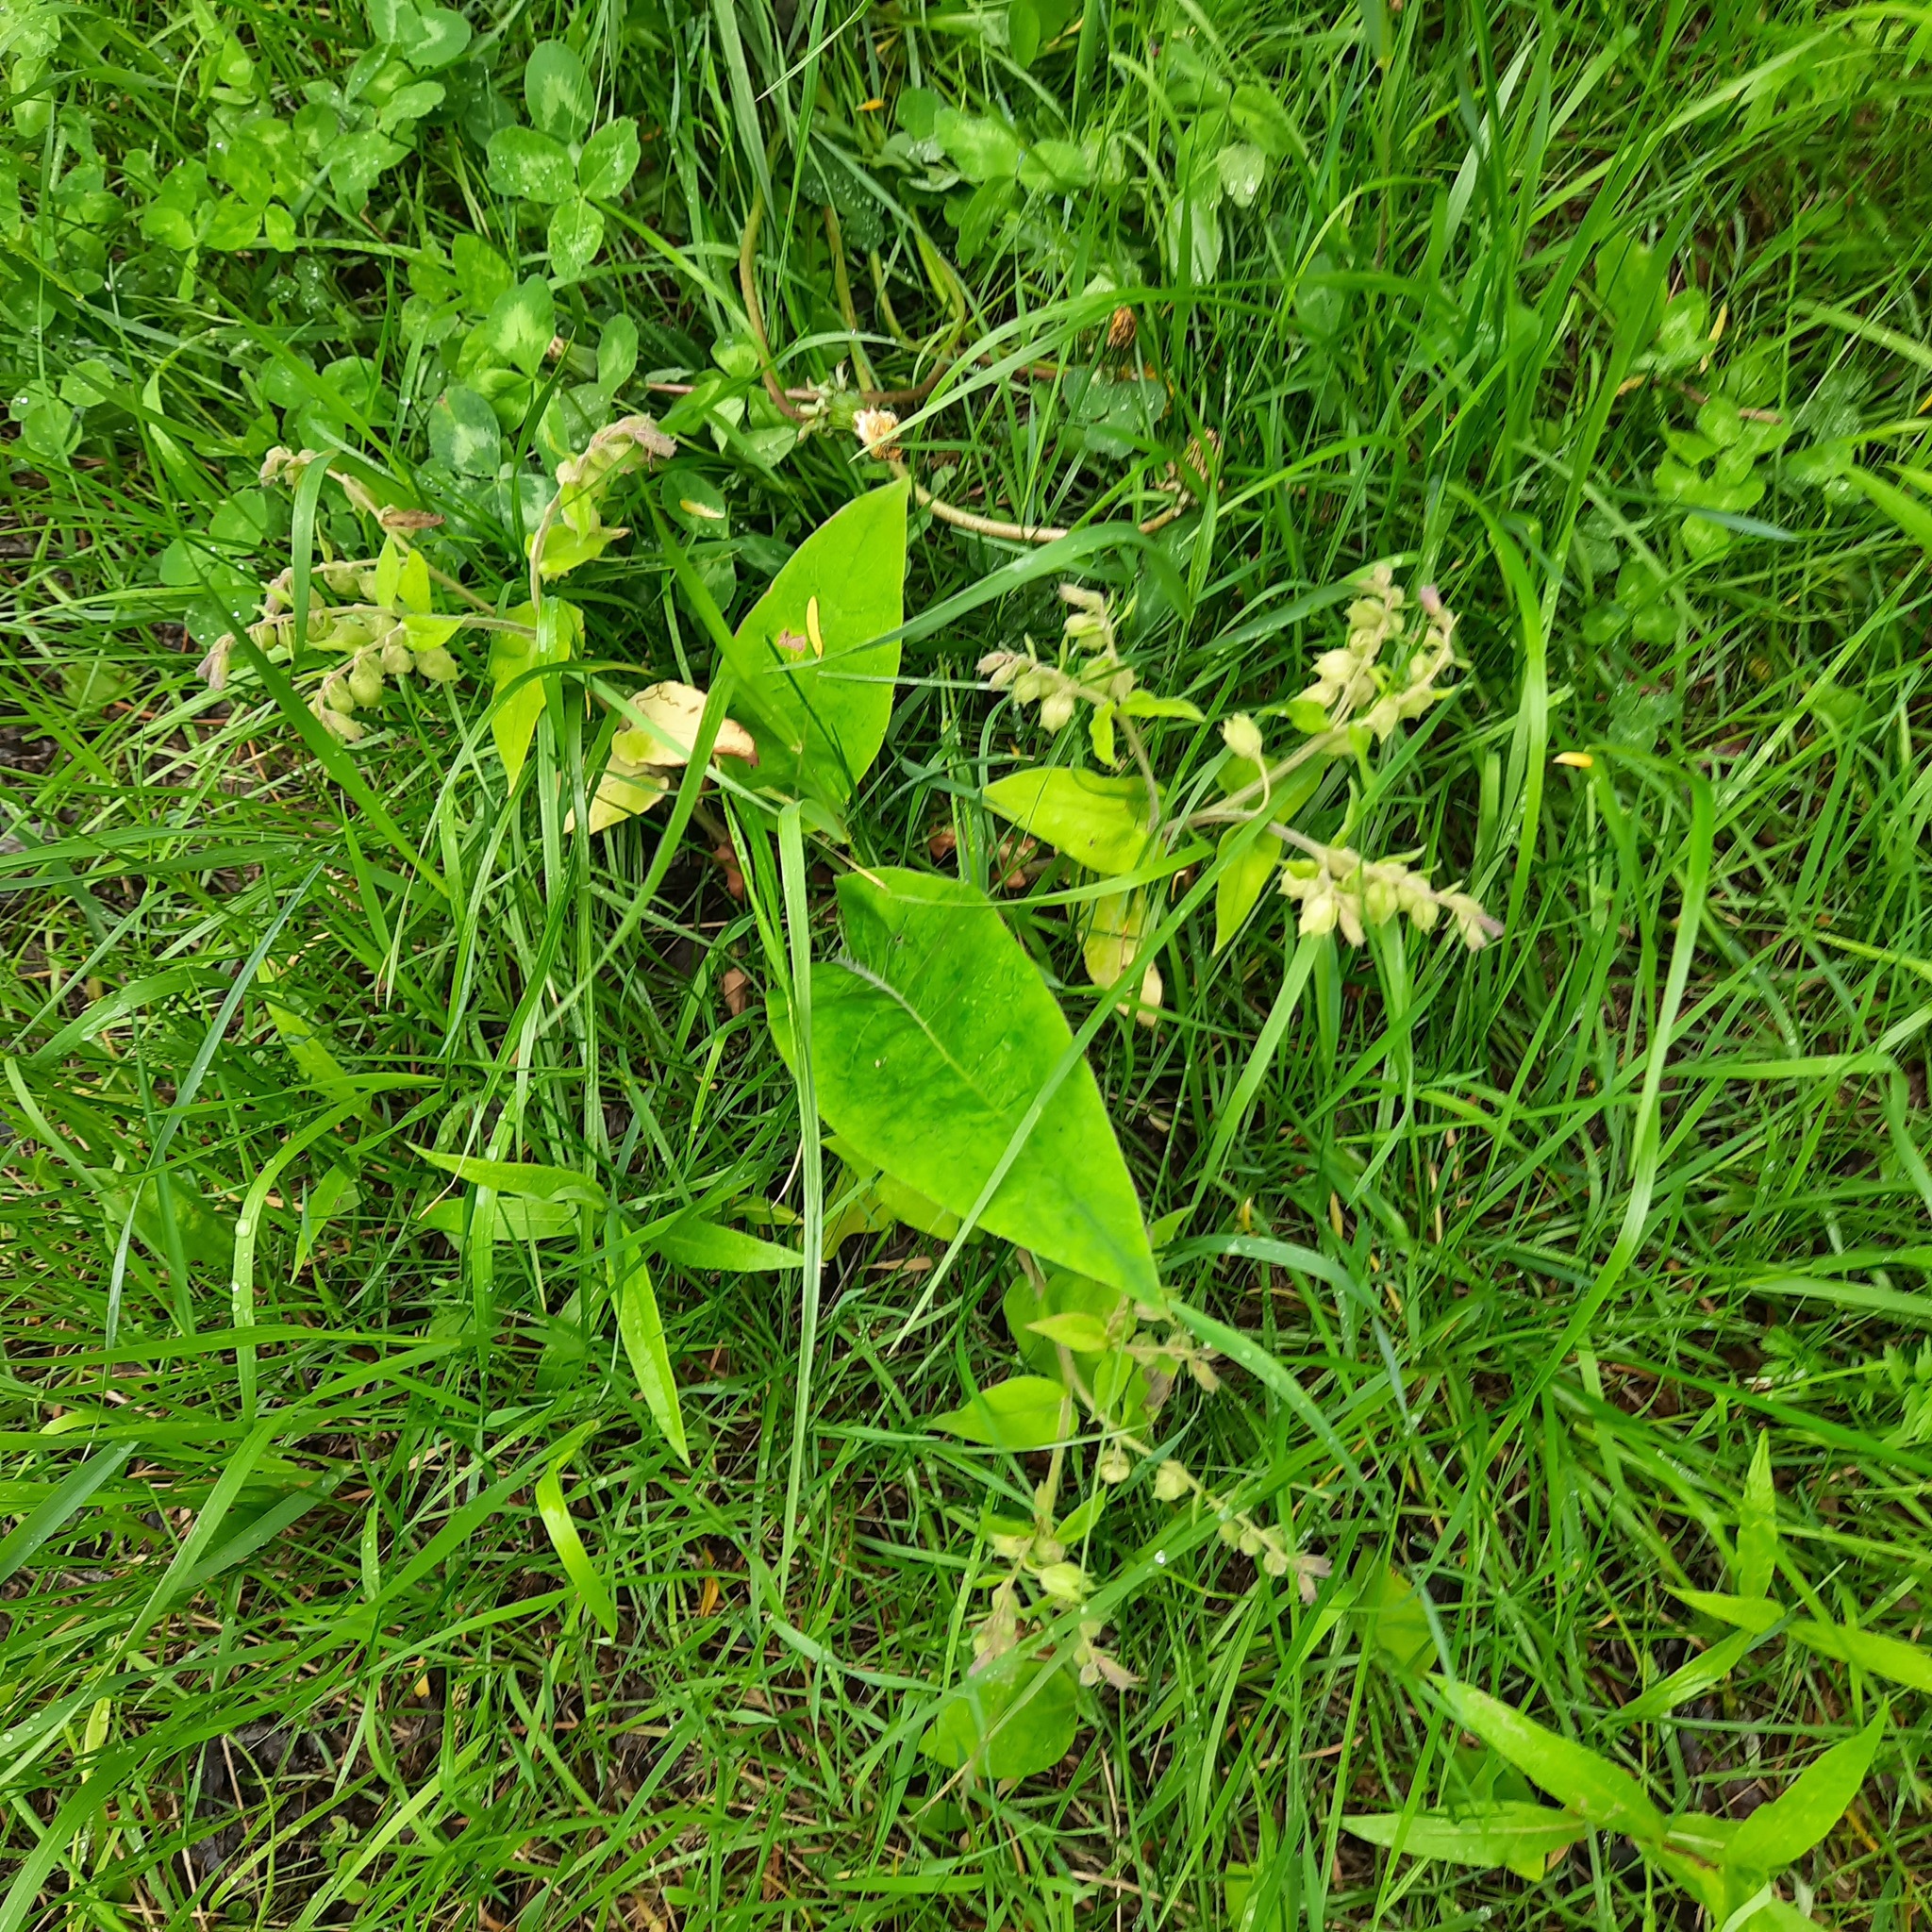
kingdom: Plantae
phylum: Tracheophyta
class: Magnoliopsida
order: Boraginales
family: Boraginaceae
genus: Pulmonaria
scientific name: Pulmonaria mollis
